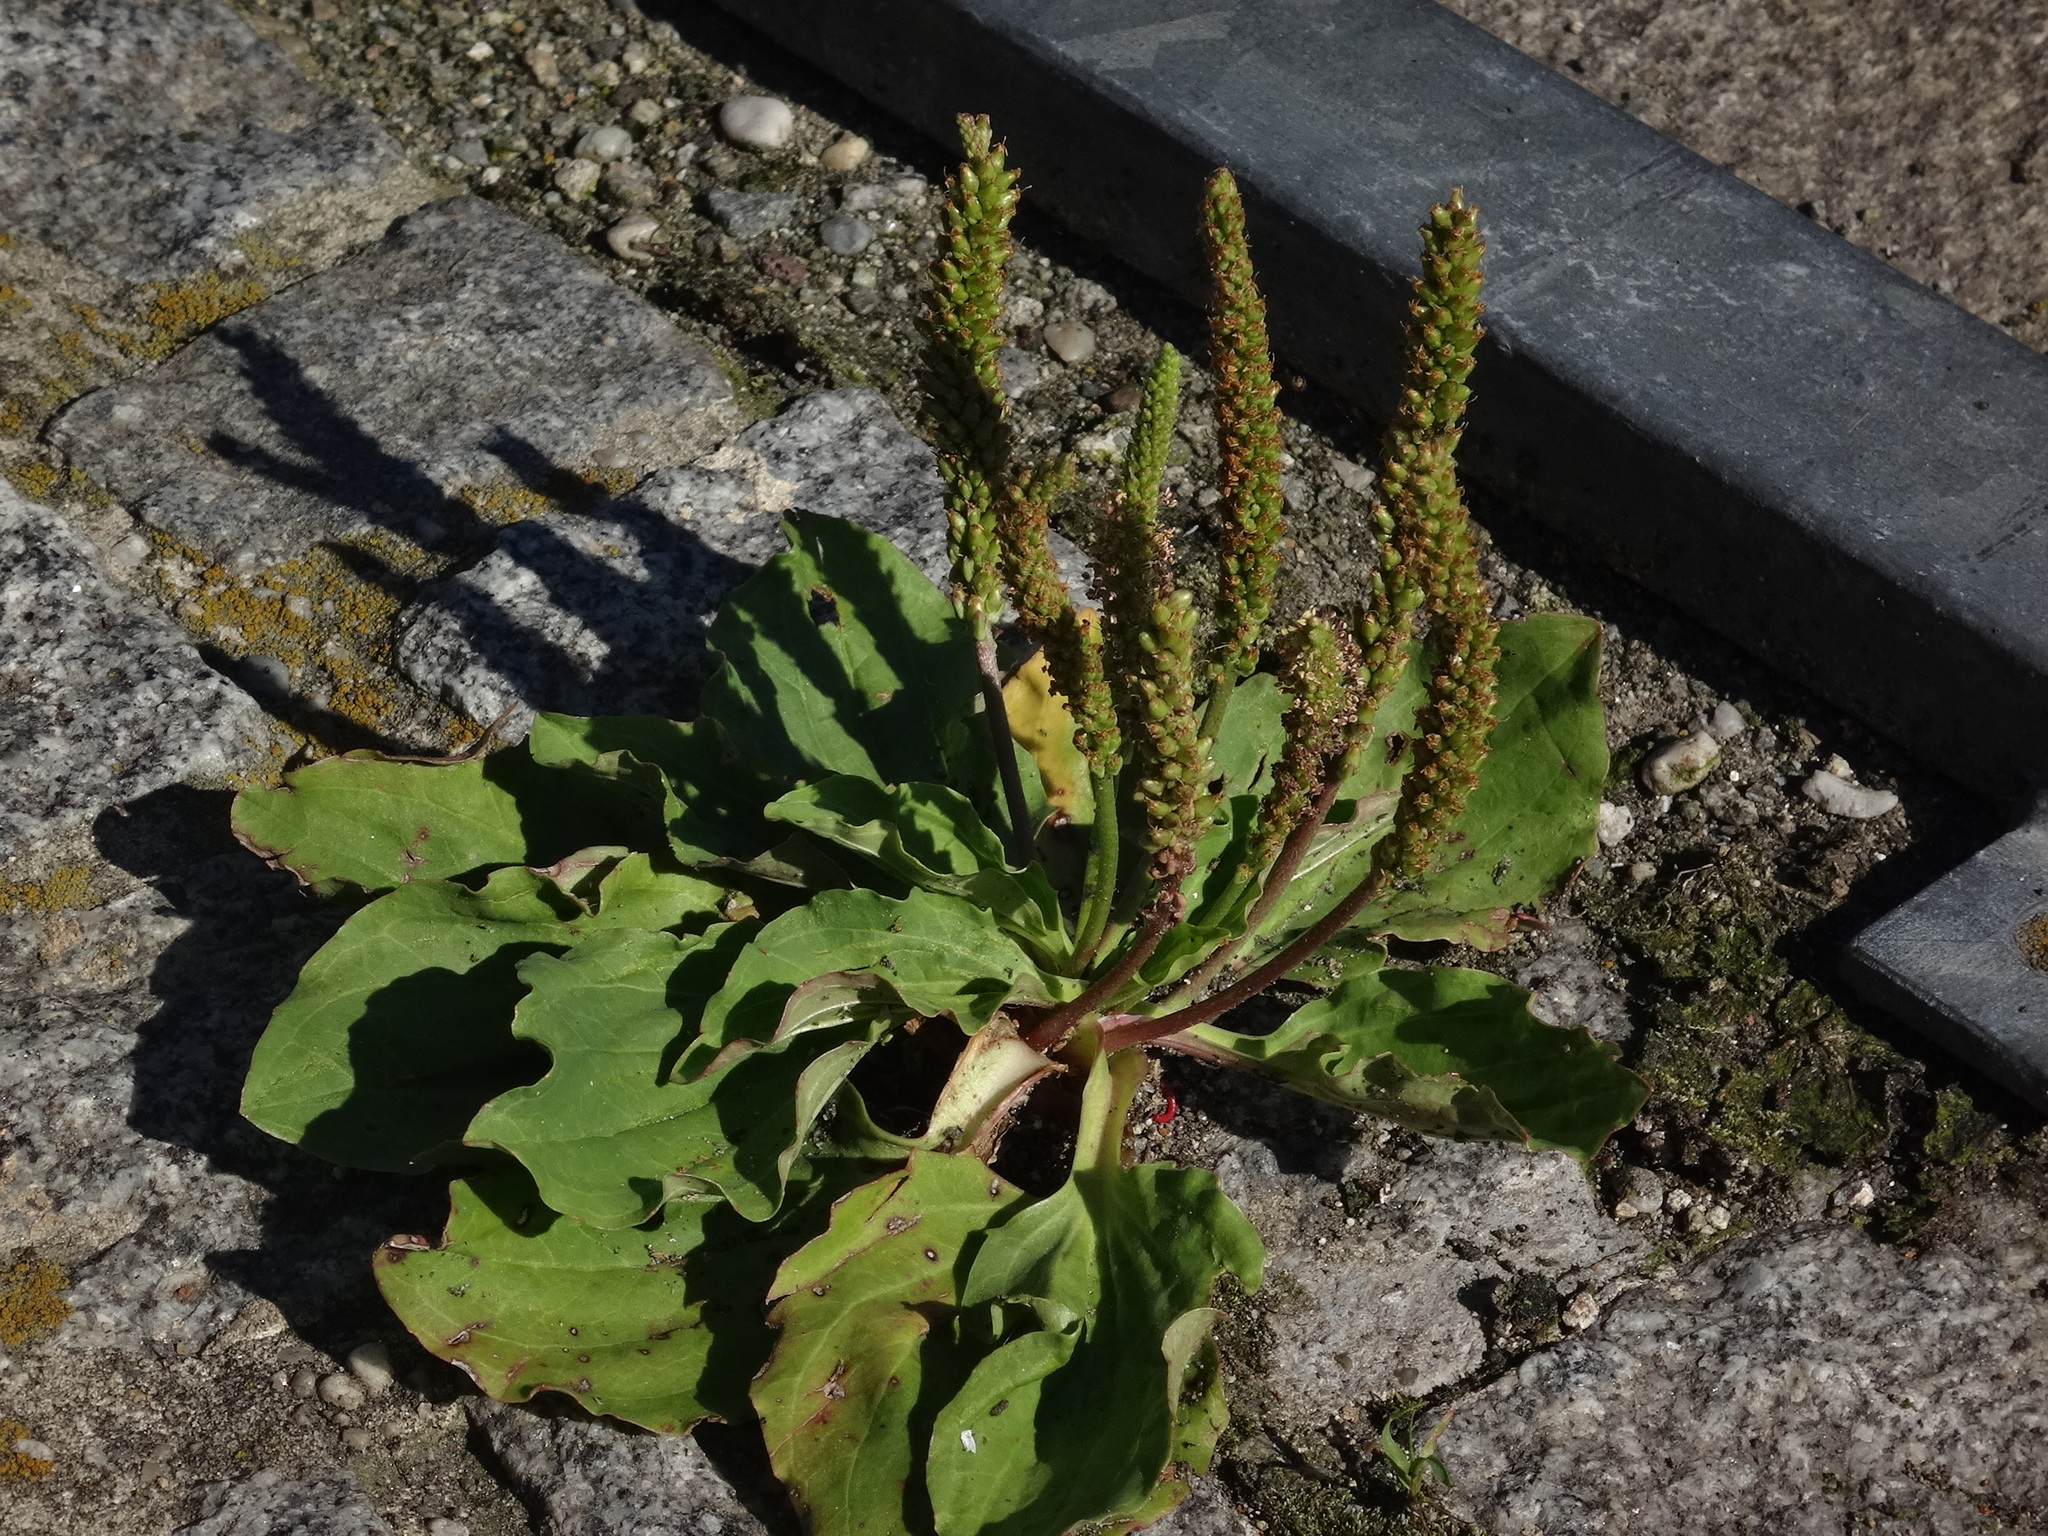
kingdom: Plantae
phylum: Tracheophyta
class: Magnoliopsida
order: Lamiales
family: Plantaginaceae
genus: Plantago
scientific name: Plantago major
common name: Common plantain
